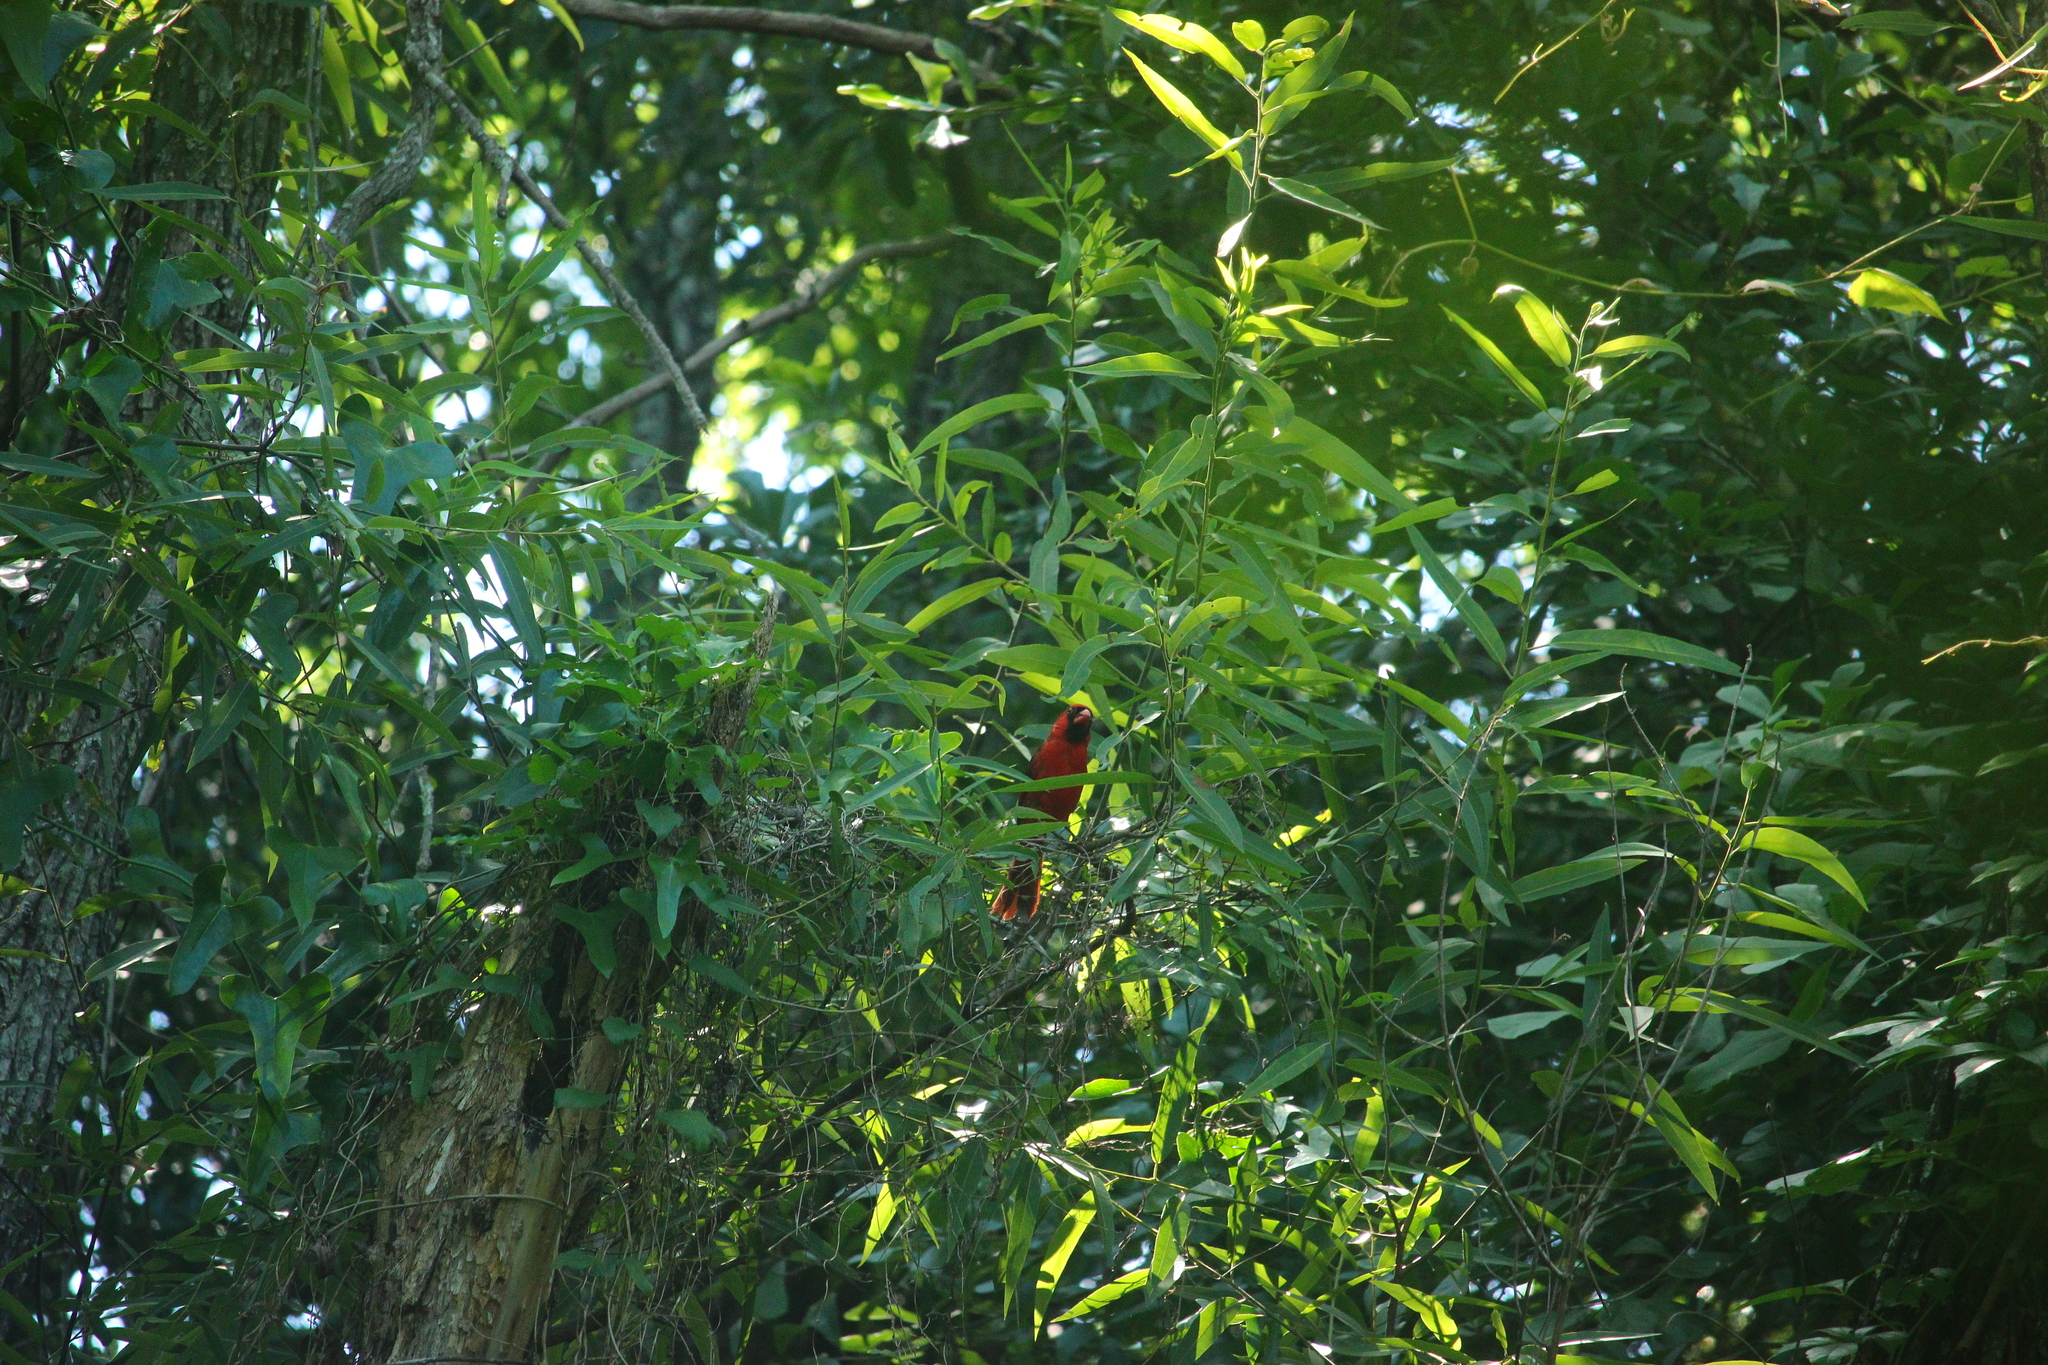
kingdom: Animalia
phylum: Chordata
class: Aves
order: Passeriformes
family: Cardinalidae
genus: Cardinalis
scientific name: Cardinalis cardinalis
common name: Northern cardinal
